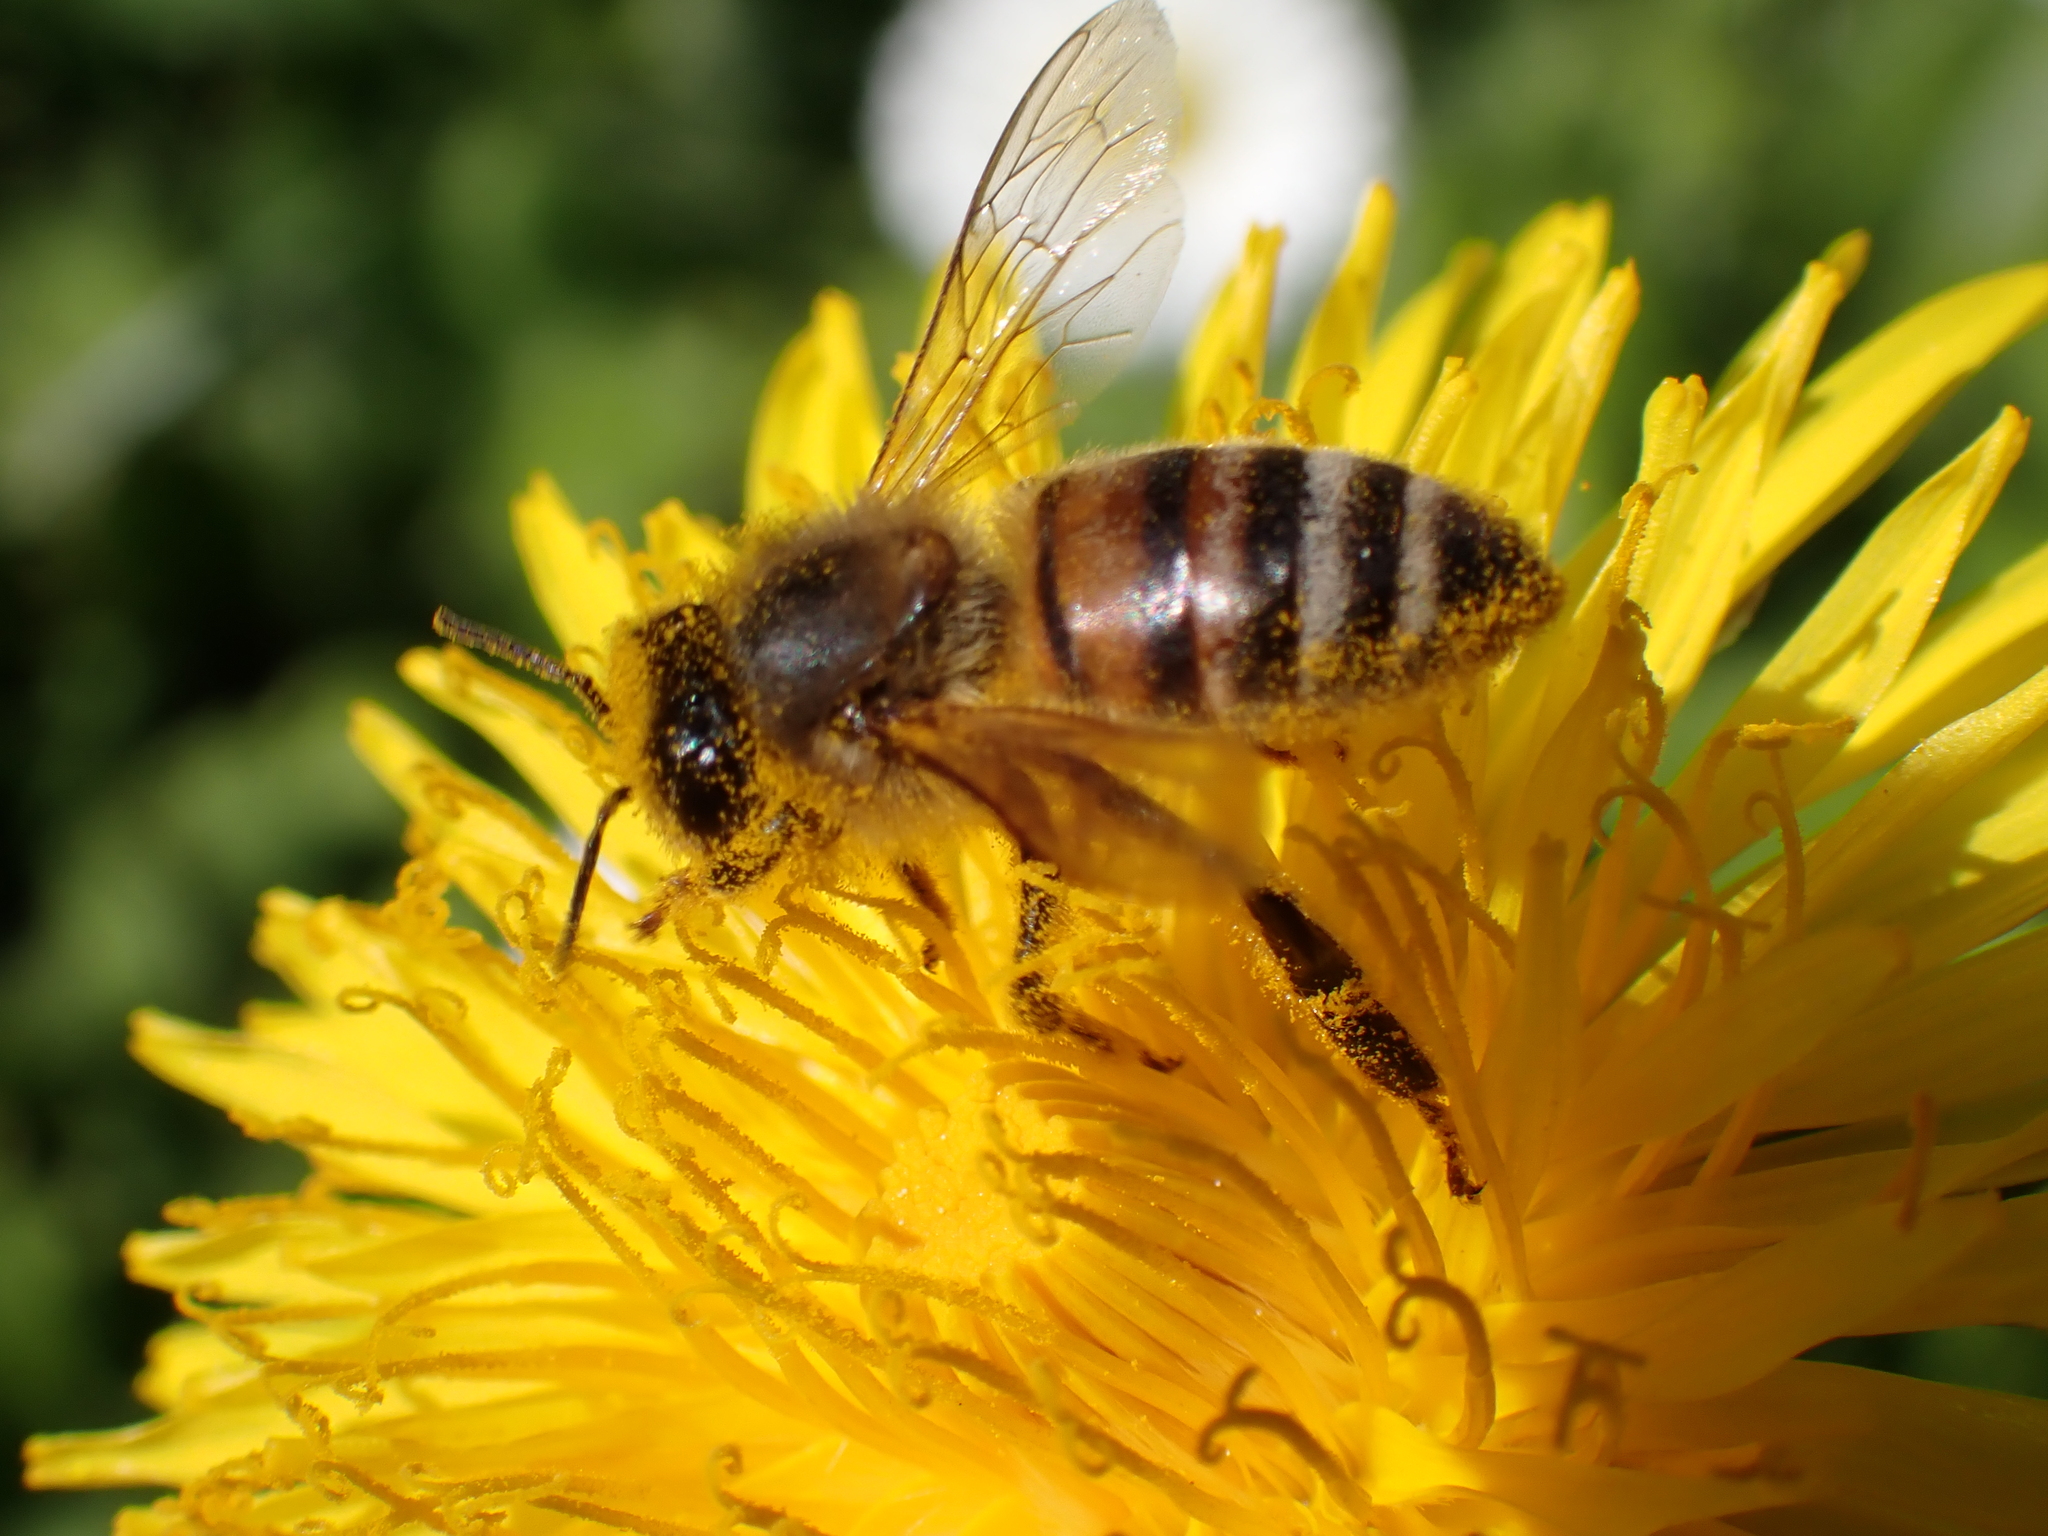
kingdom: Animalia
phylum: Arthropoda
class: Insecta
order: Hymenoptera
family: Apidae
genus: Apis
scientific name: Apis mellifera
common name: Honey bee
